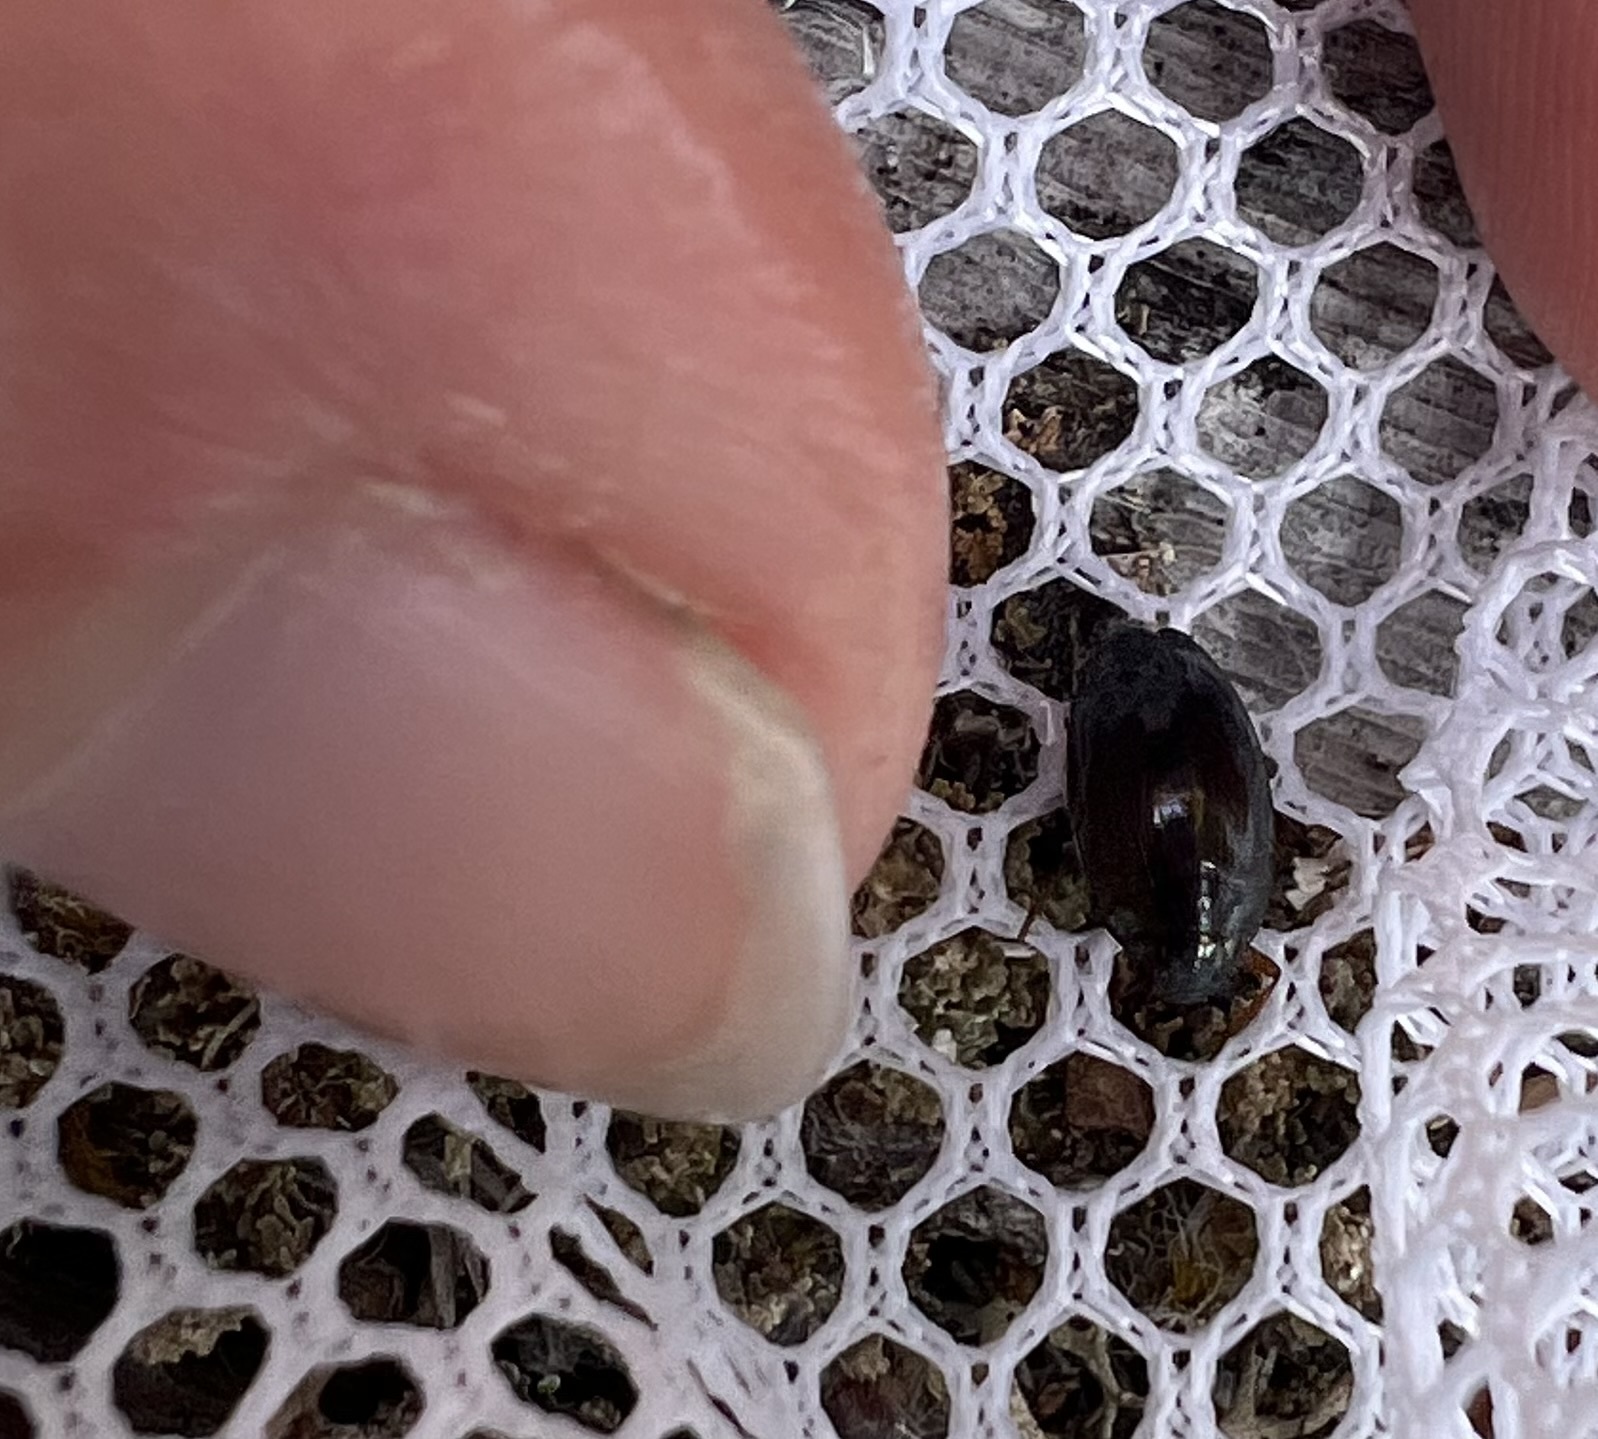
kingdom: Animalia
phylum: Arthropoda
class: Insecta
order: Coleoptera
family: Gyrinidae
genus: Gyrinus
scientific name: Gyrinus
